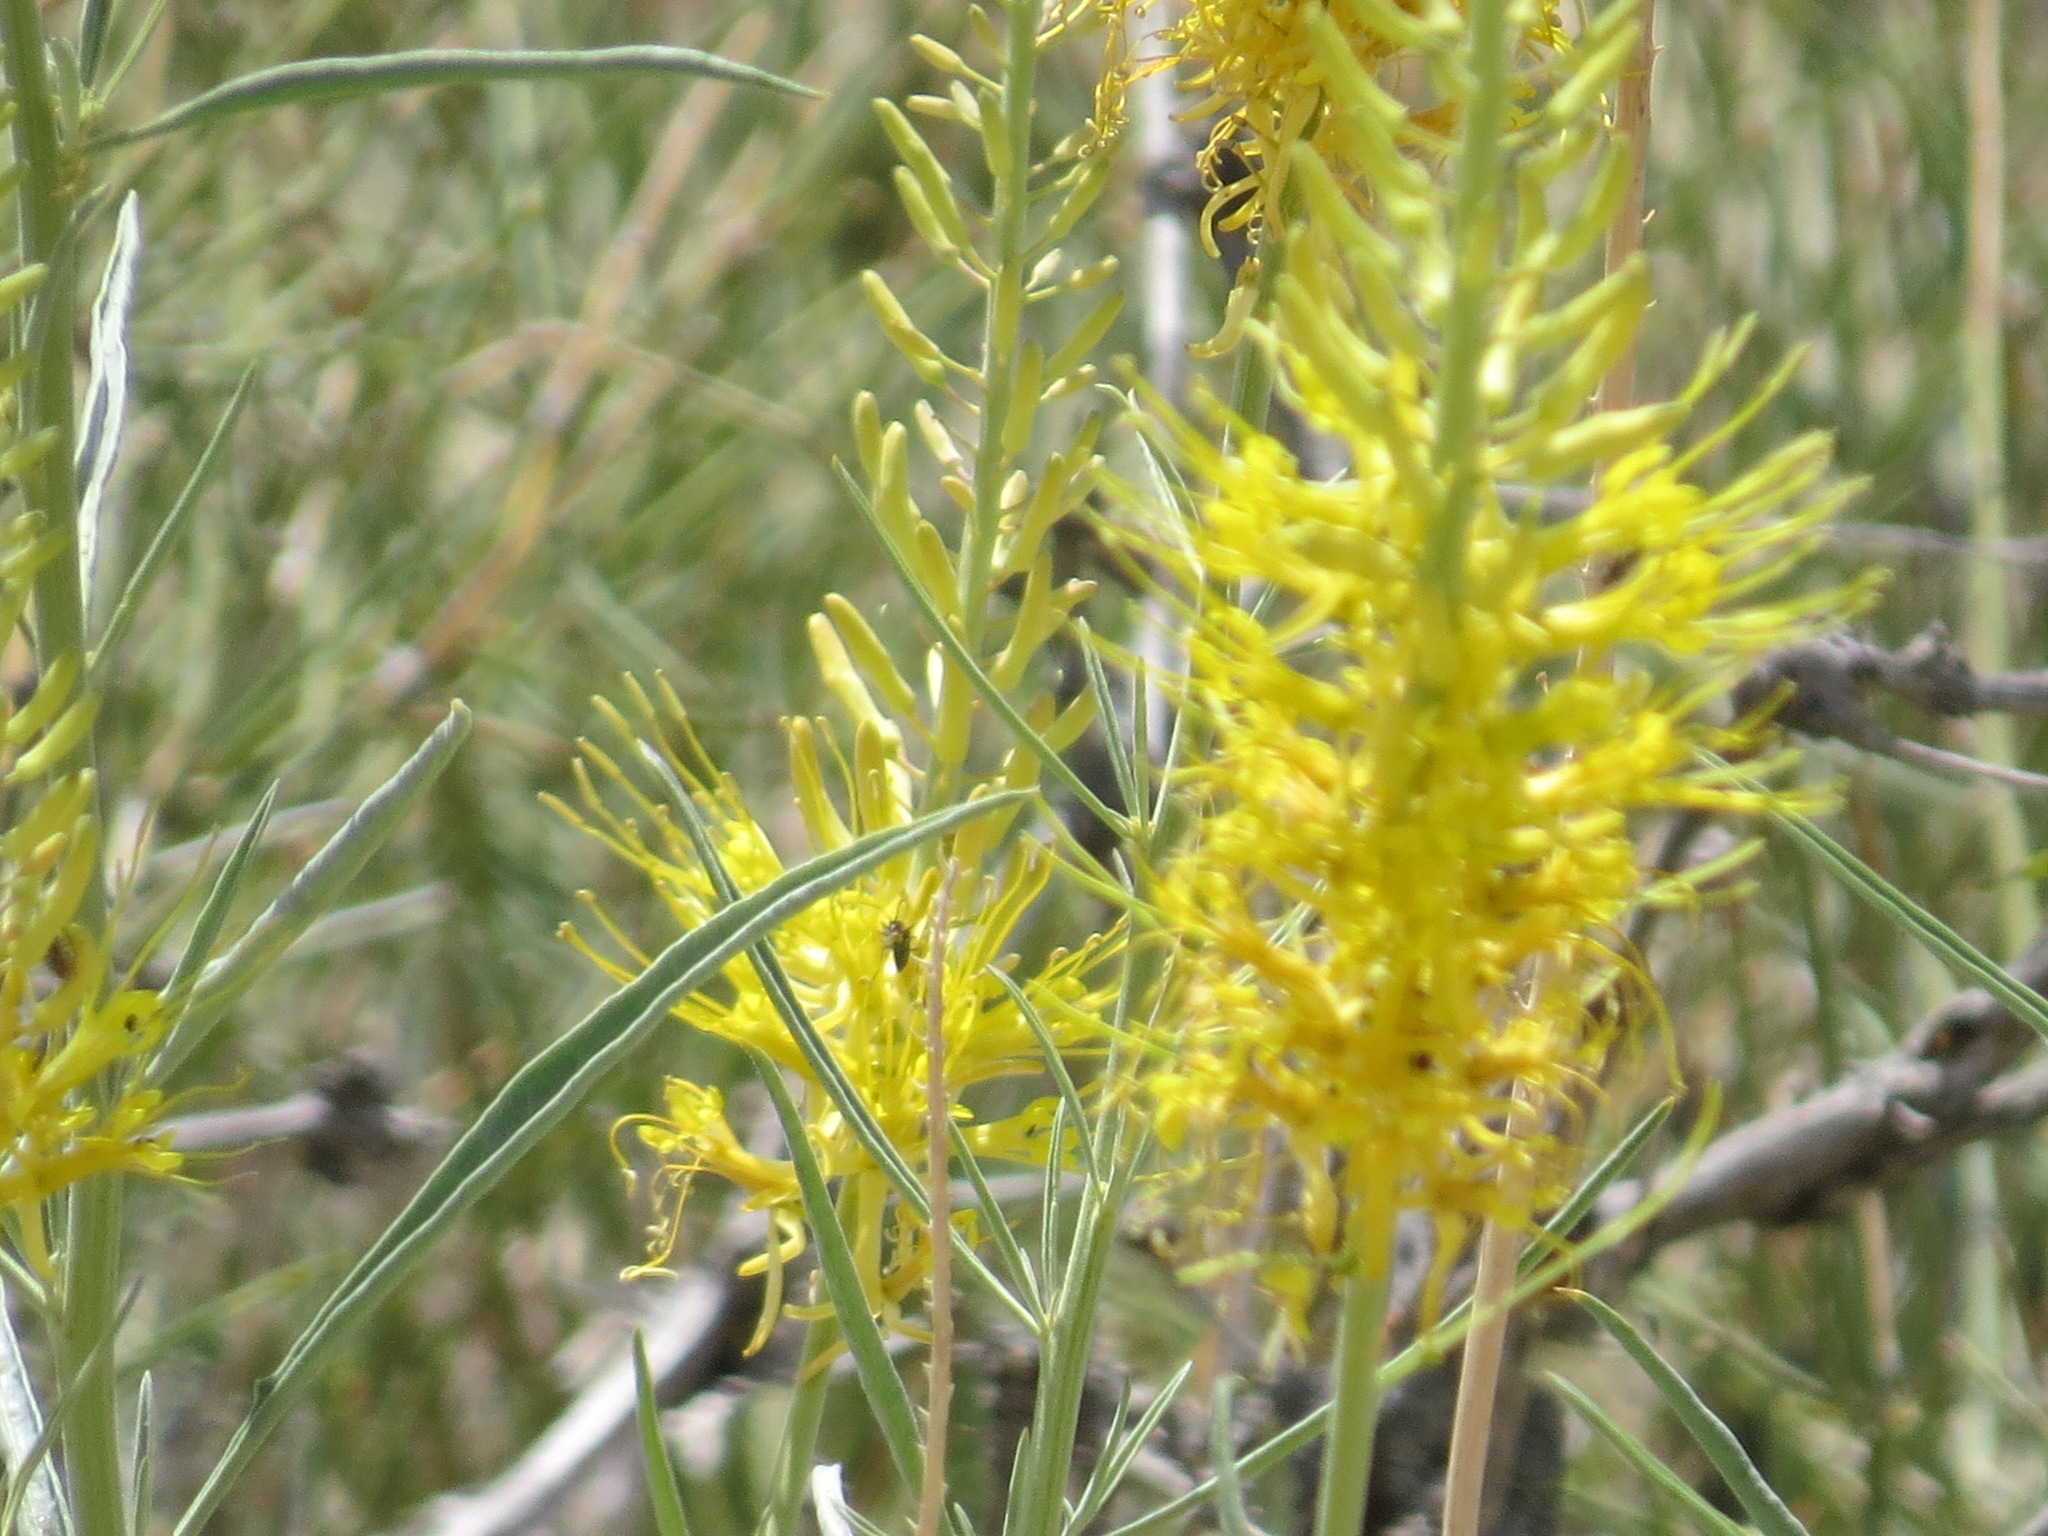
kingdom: Plantae
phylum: Tracheophyta
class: Magnoliopsida
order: Brassicales
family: Brassicaceae
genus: Stanleya
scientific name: Stanleya pinnata
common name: Prince's-plume
